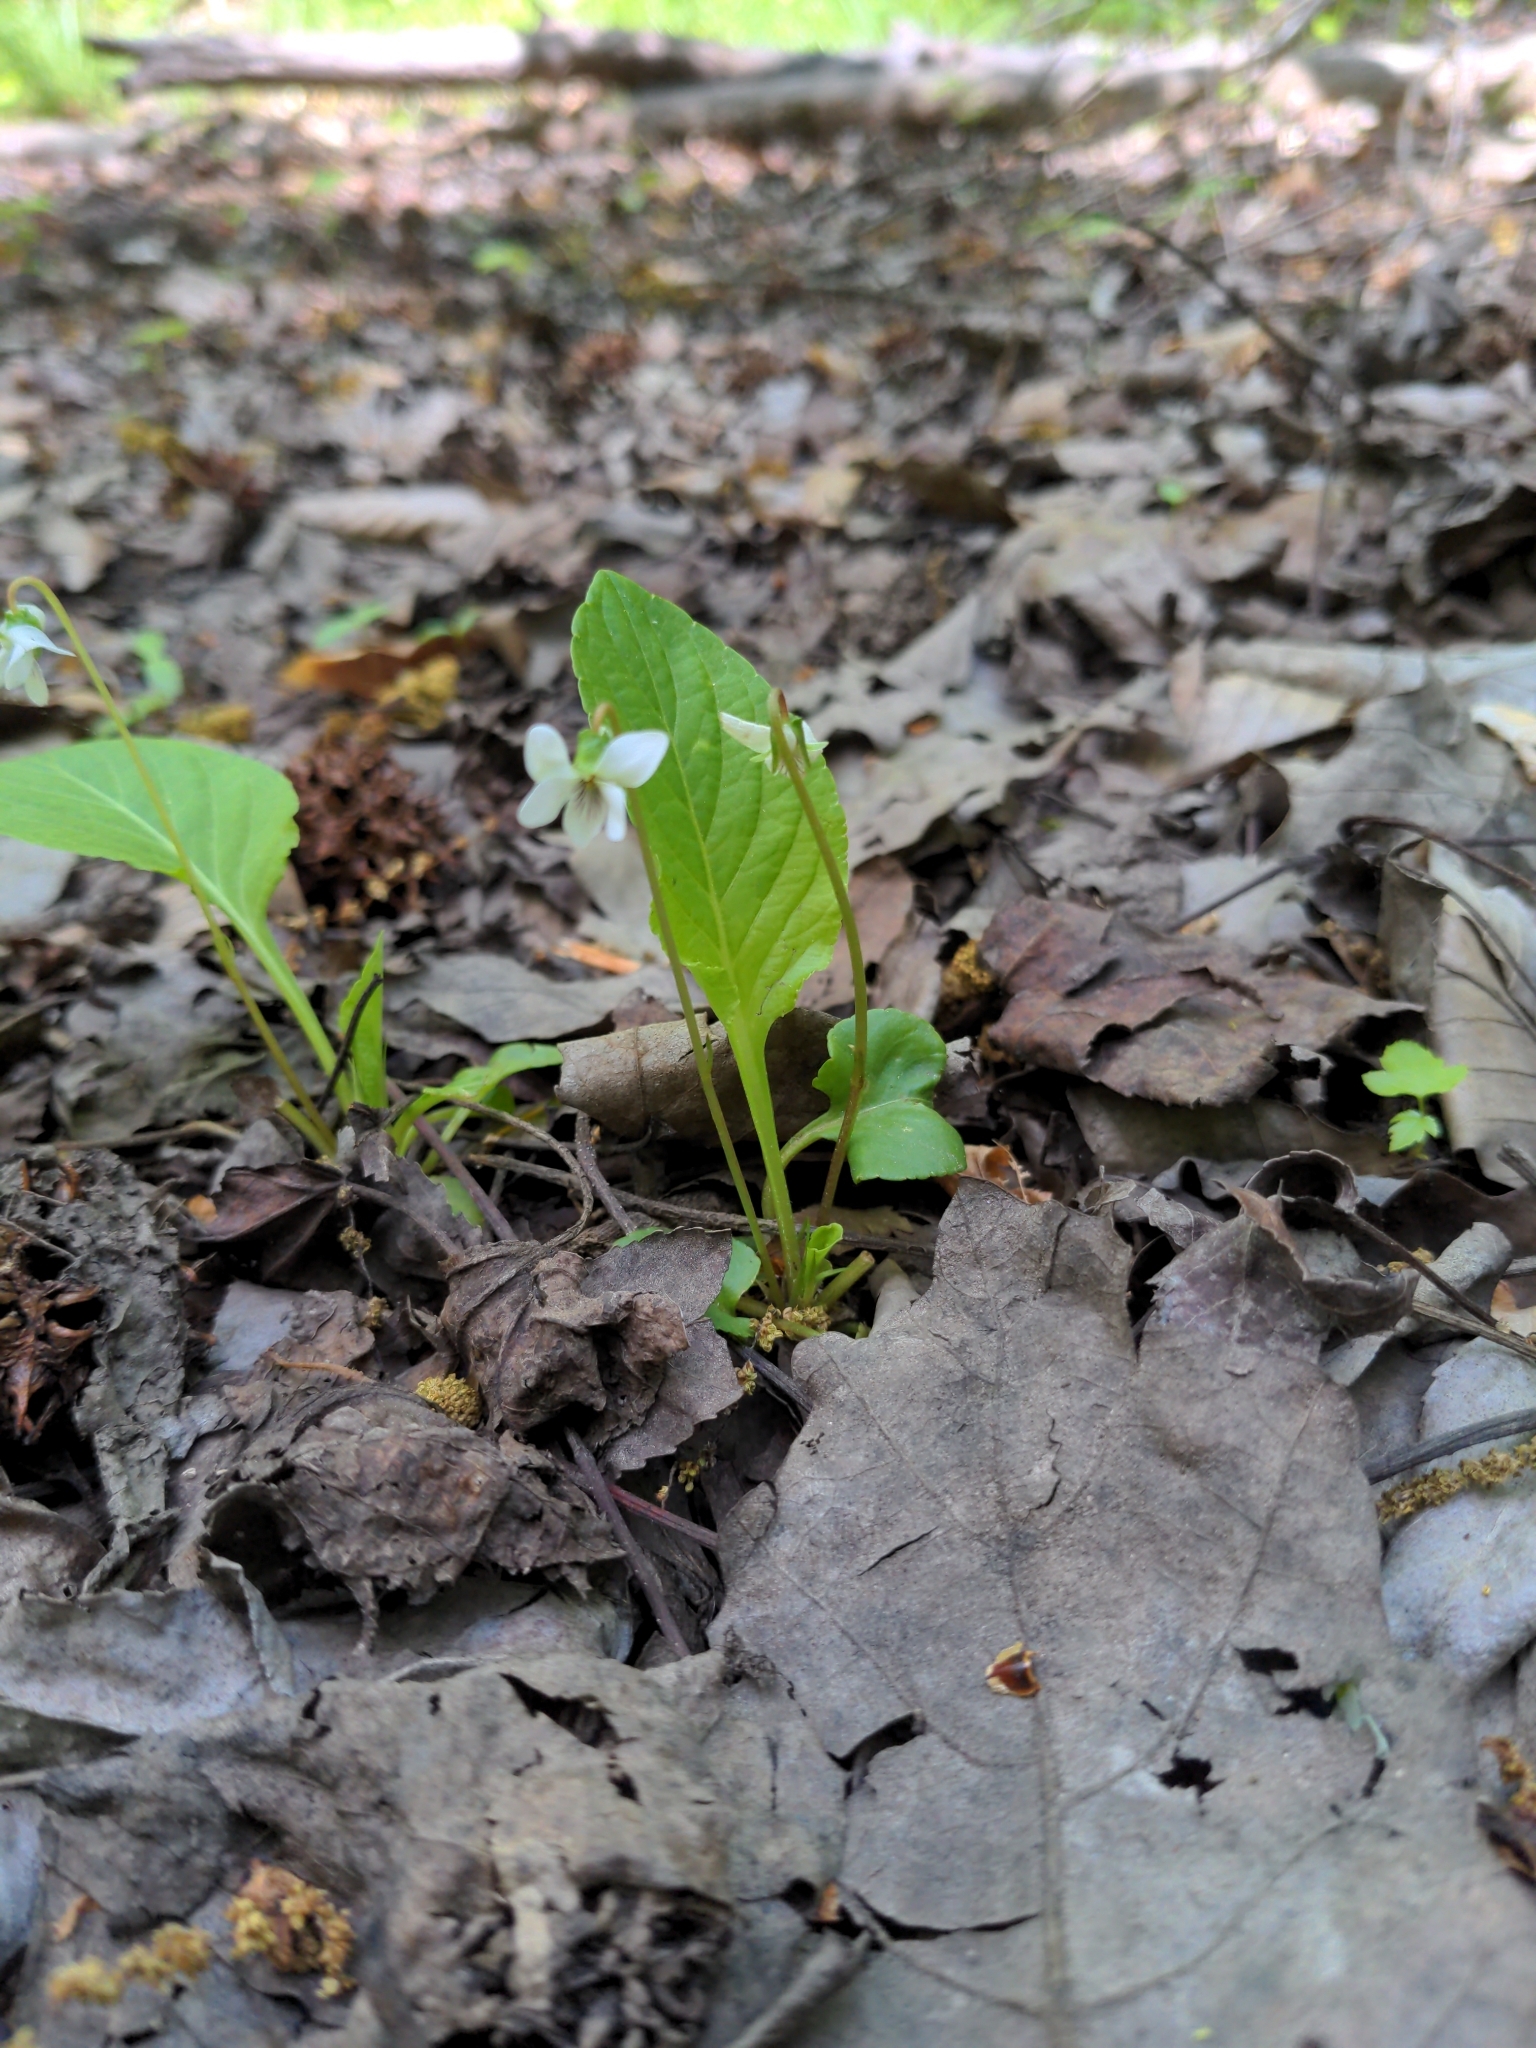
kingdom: Plantae
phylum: Tracheophyta
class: Magnoliopsida
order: Malpighiales
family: Violaceae
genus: Viola
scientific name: Viola primulifolia
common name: Primrose-leaf violet
